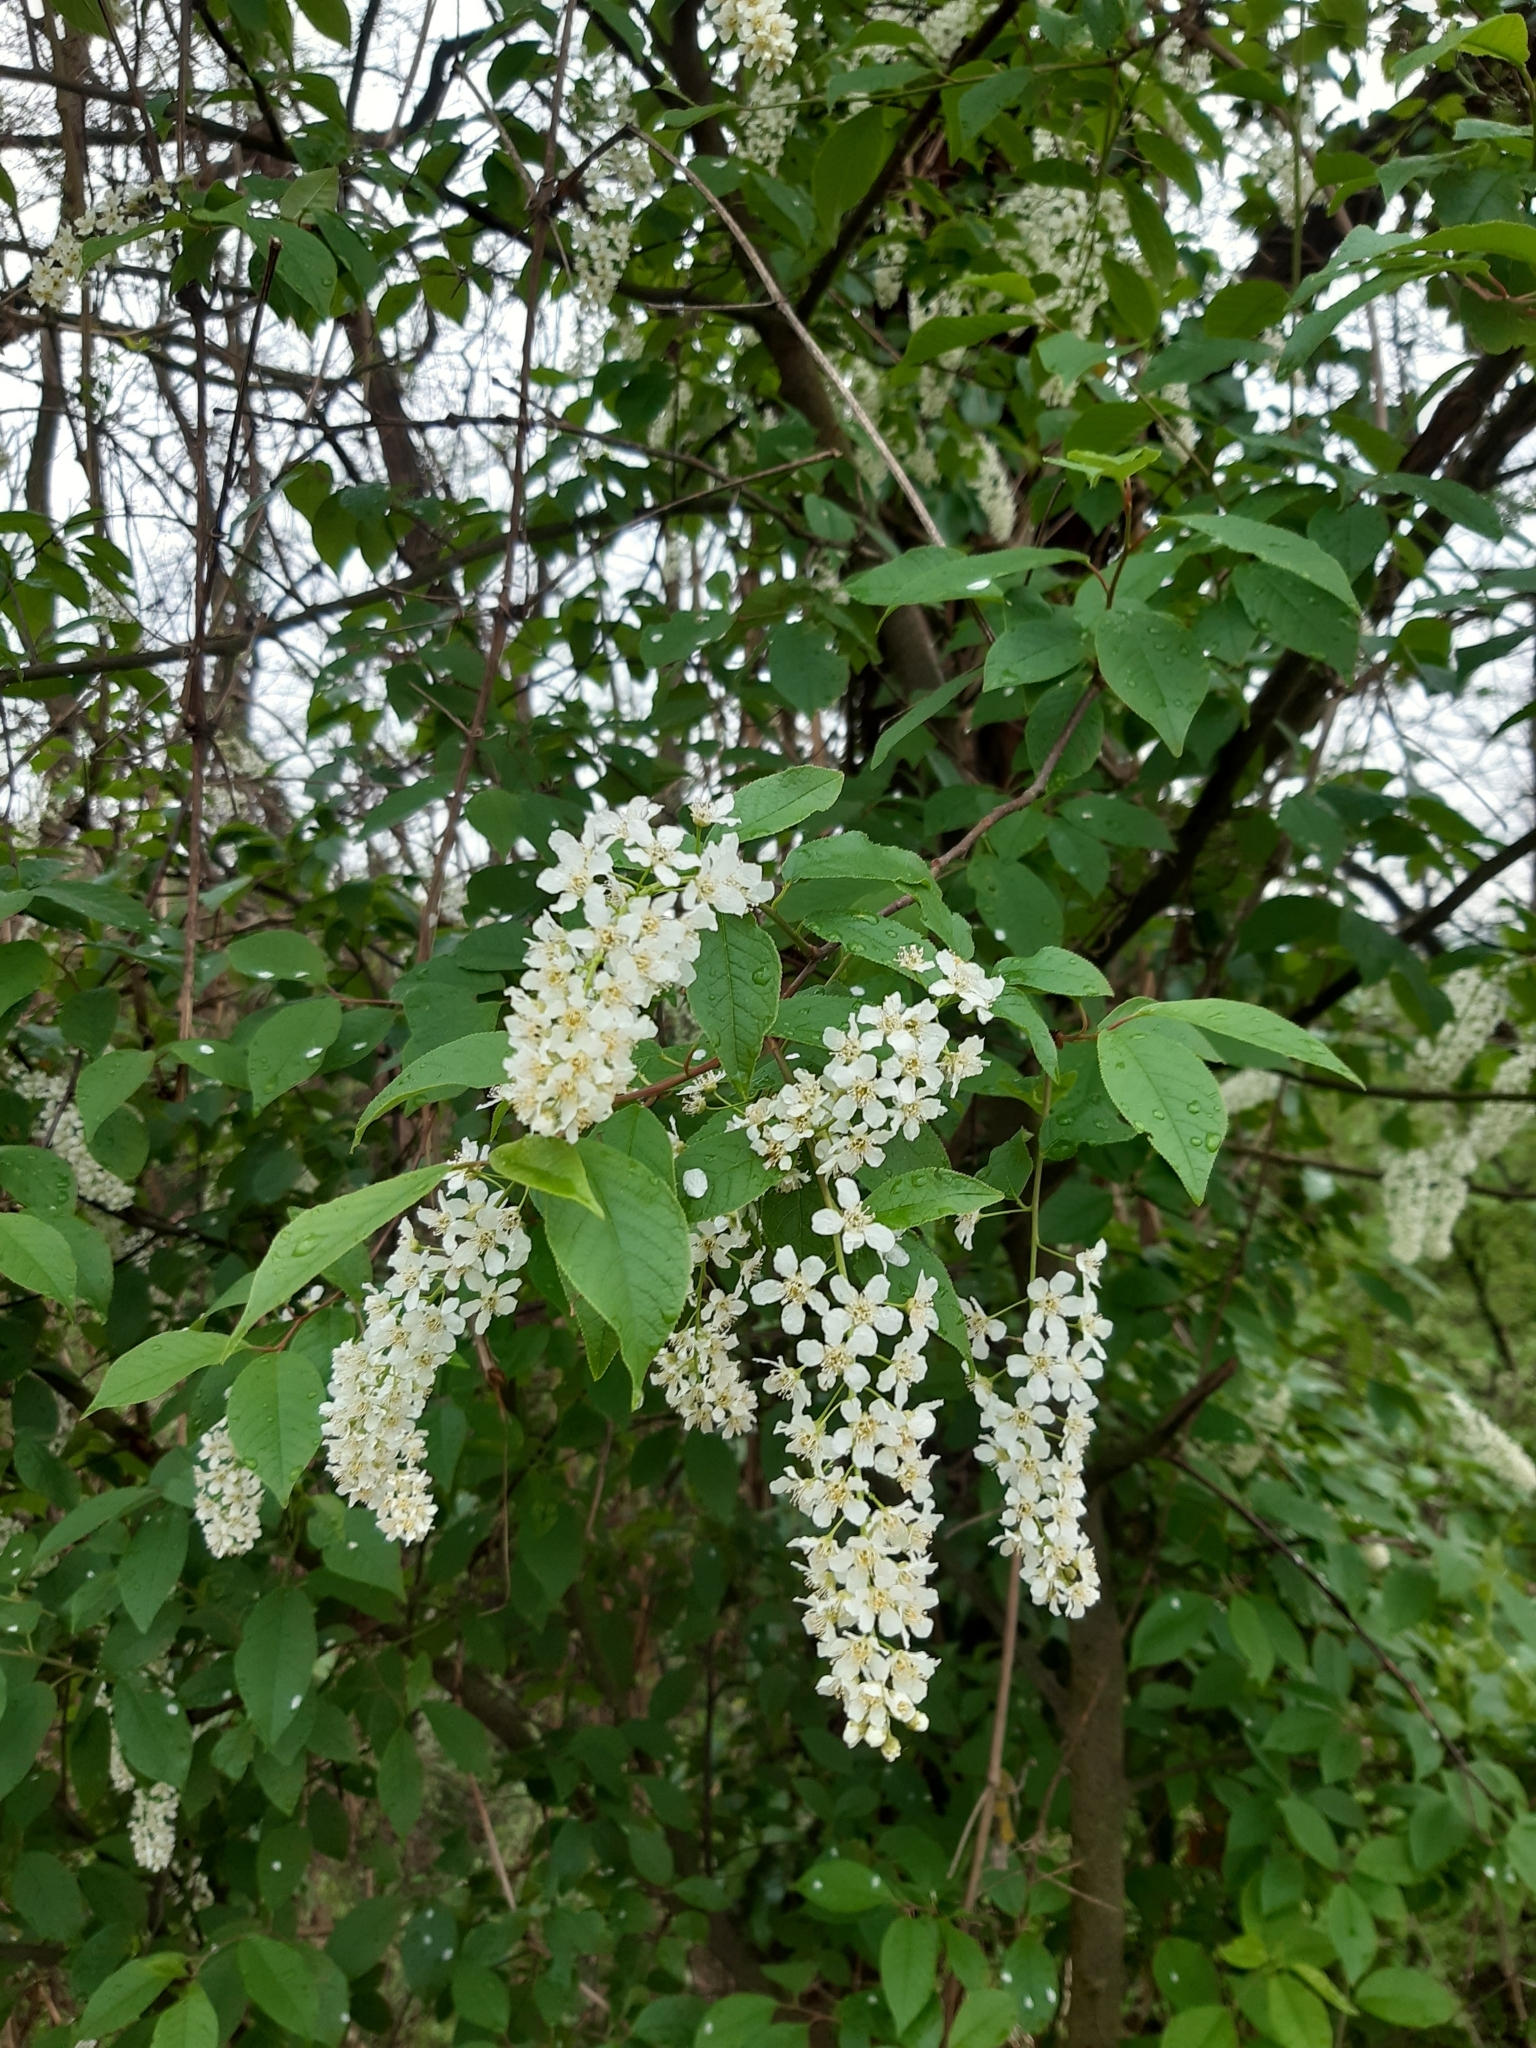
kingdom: Plantae
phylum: Tracheophyta
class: Magnoliopsida
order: Rosales
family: Rosaceae
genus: Prunus
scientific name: Prunus padus
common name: Bird cherry
